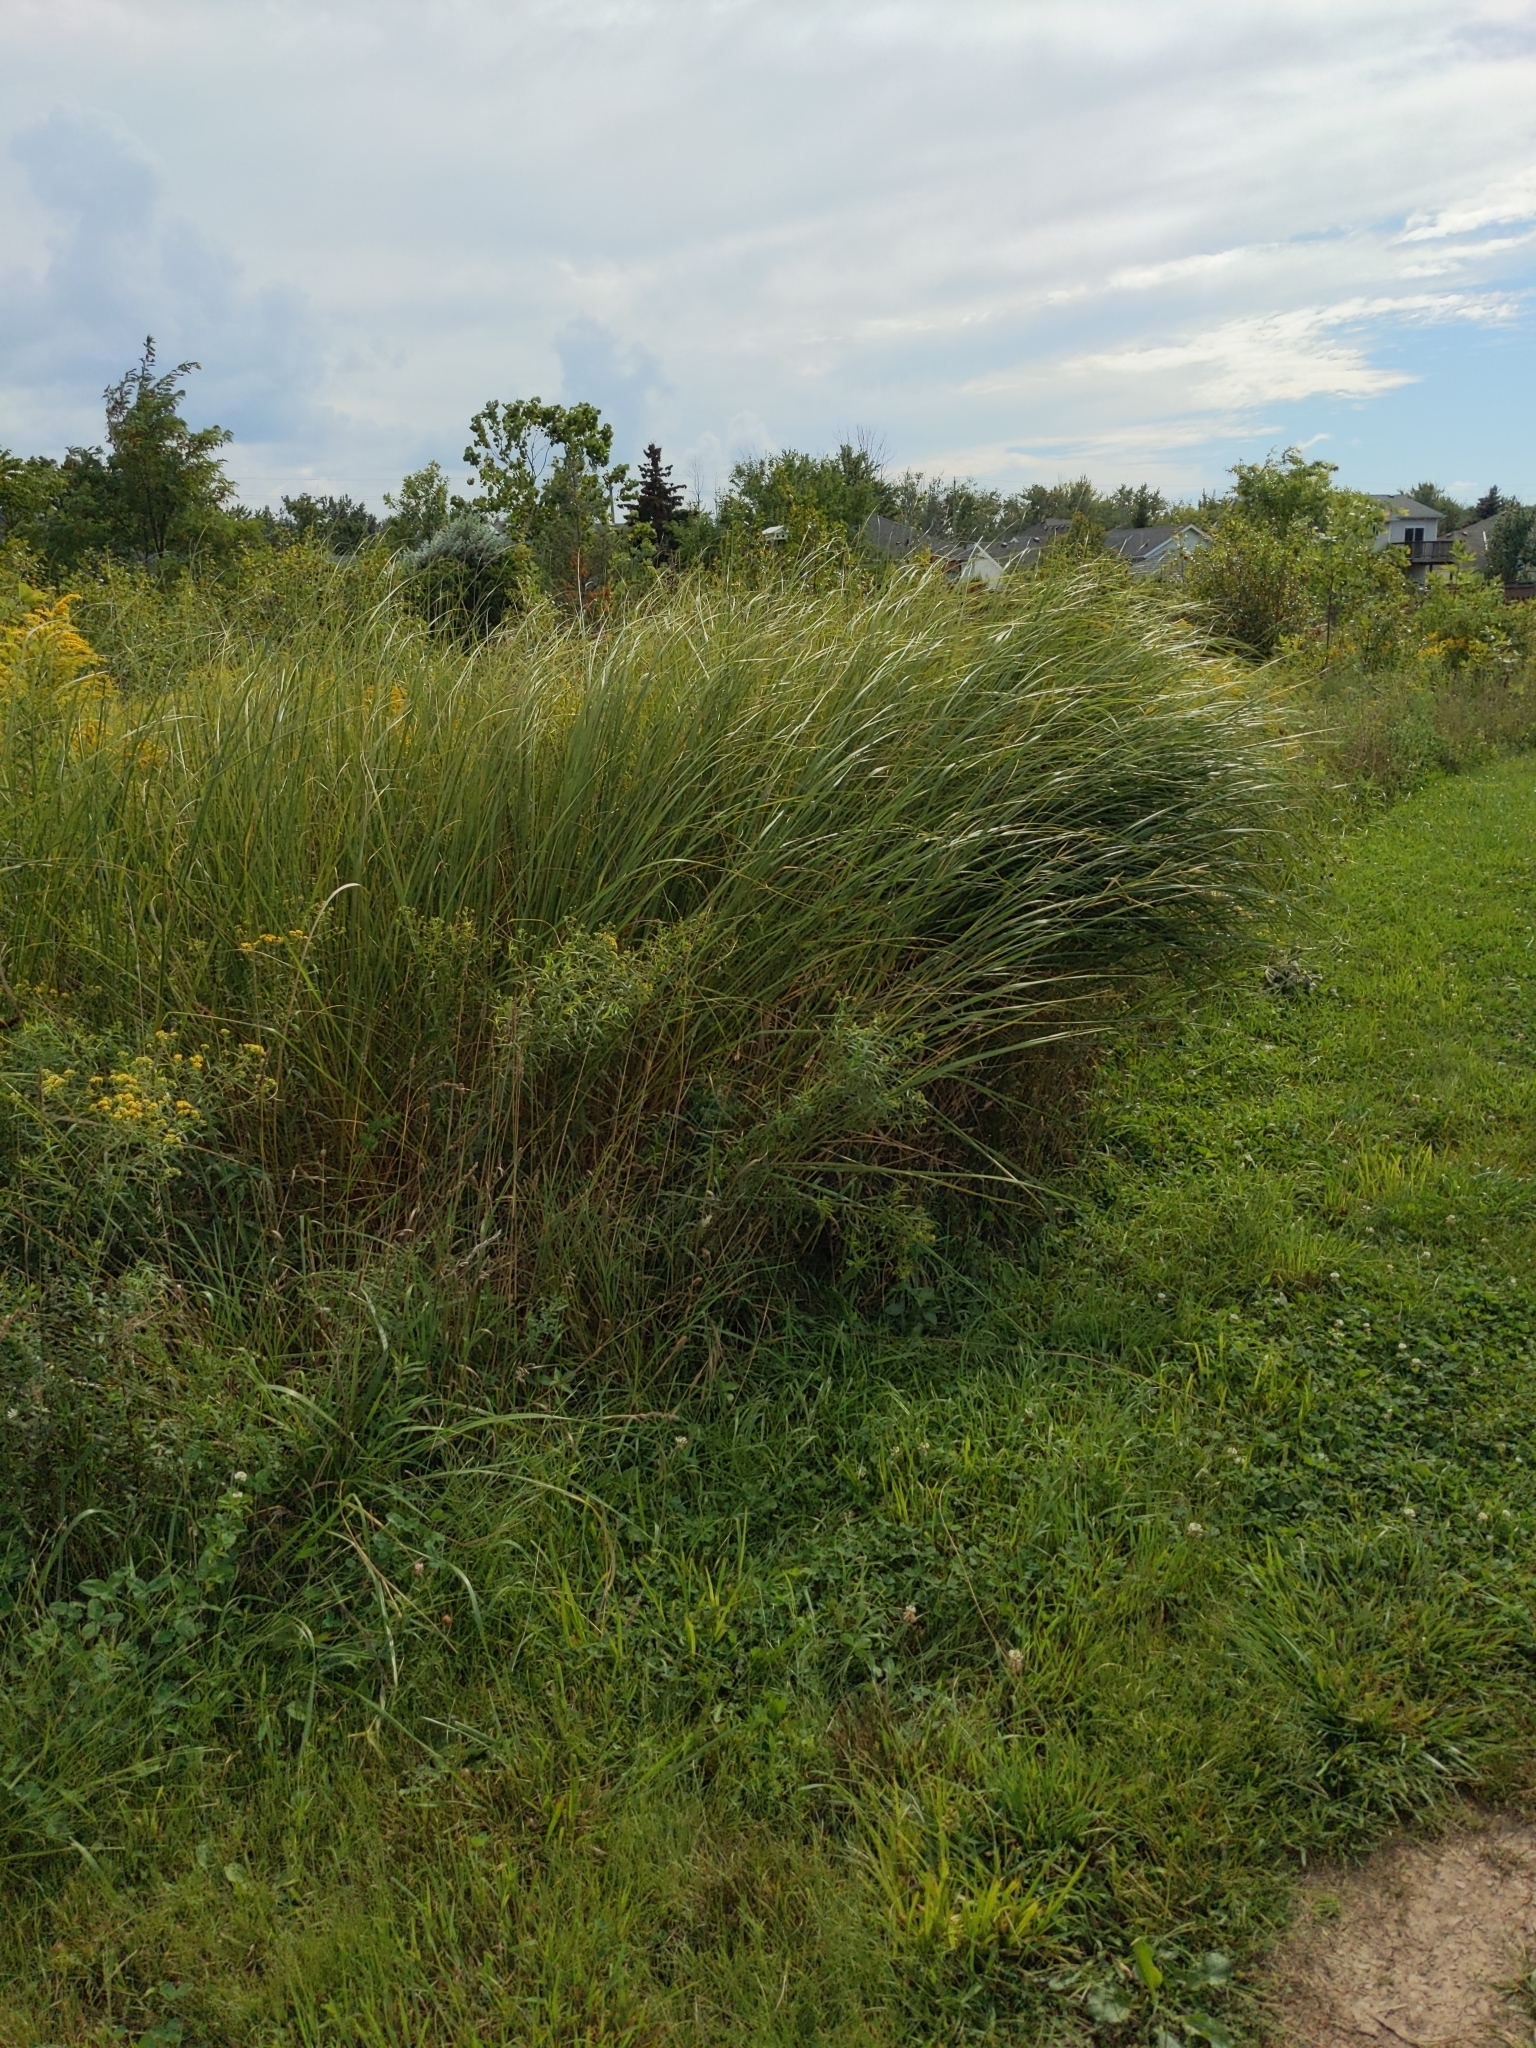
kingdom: Plantae
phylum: Tracheophyta
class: Liliopsida
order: Poales
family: Poaceae
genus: Sporobolus
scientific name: Sporobolus michauxianus
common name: Freshwater cordgrass
